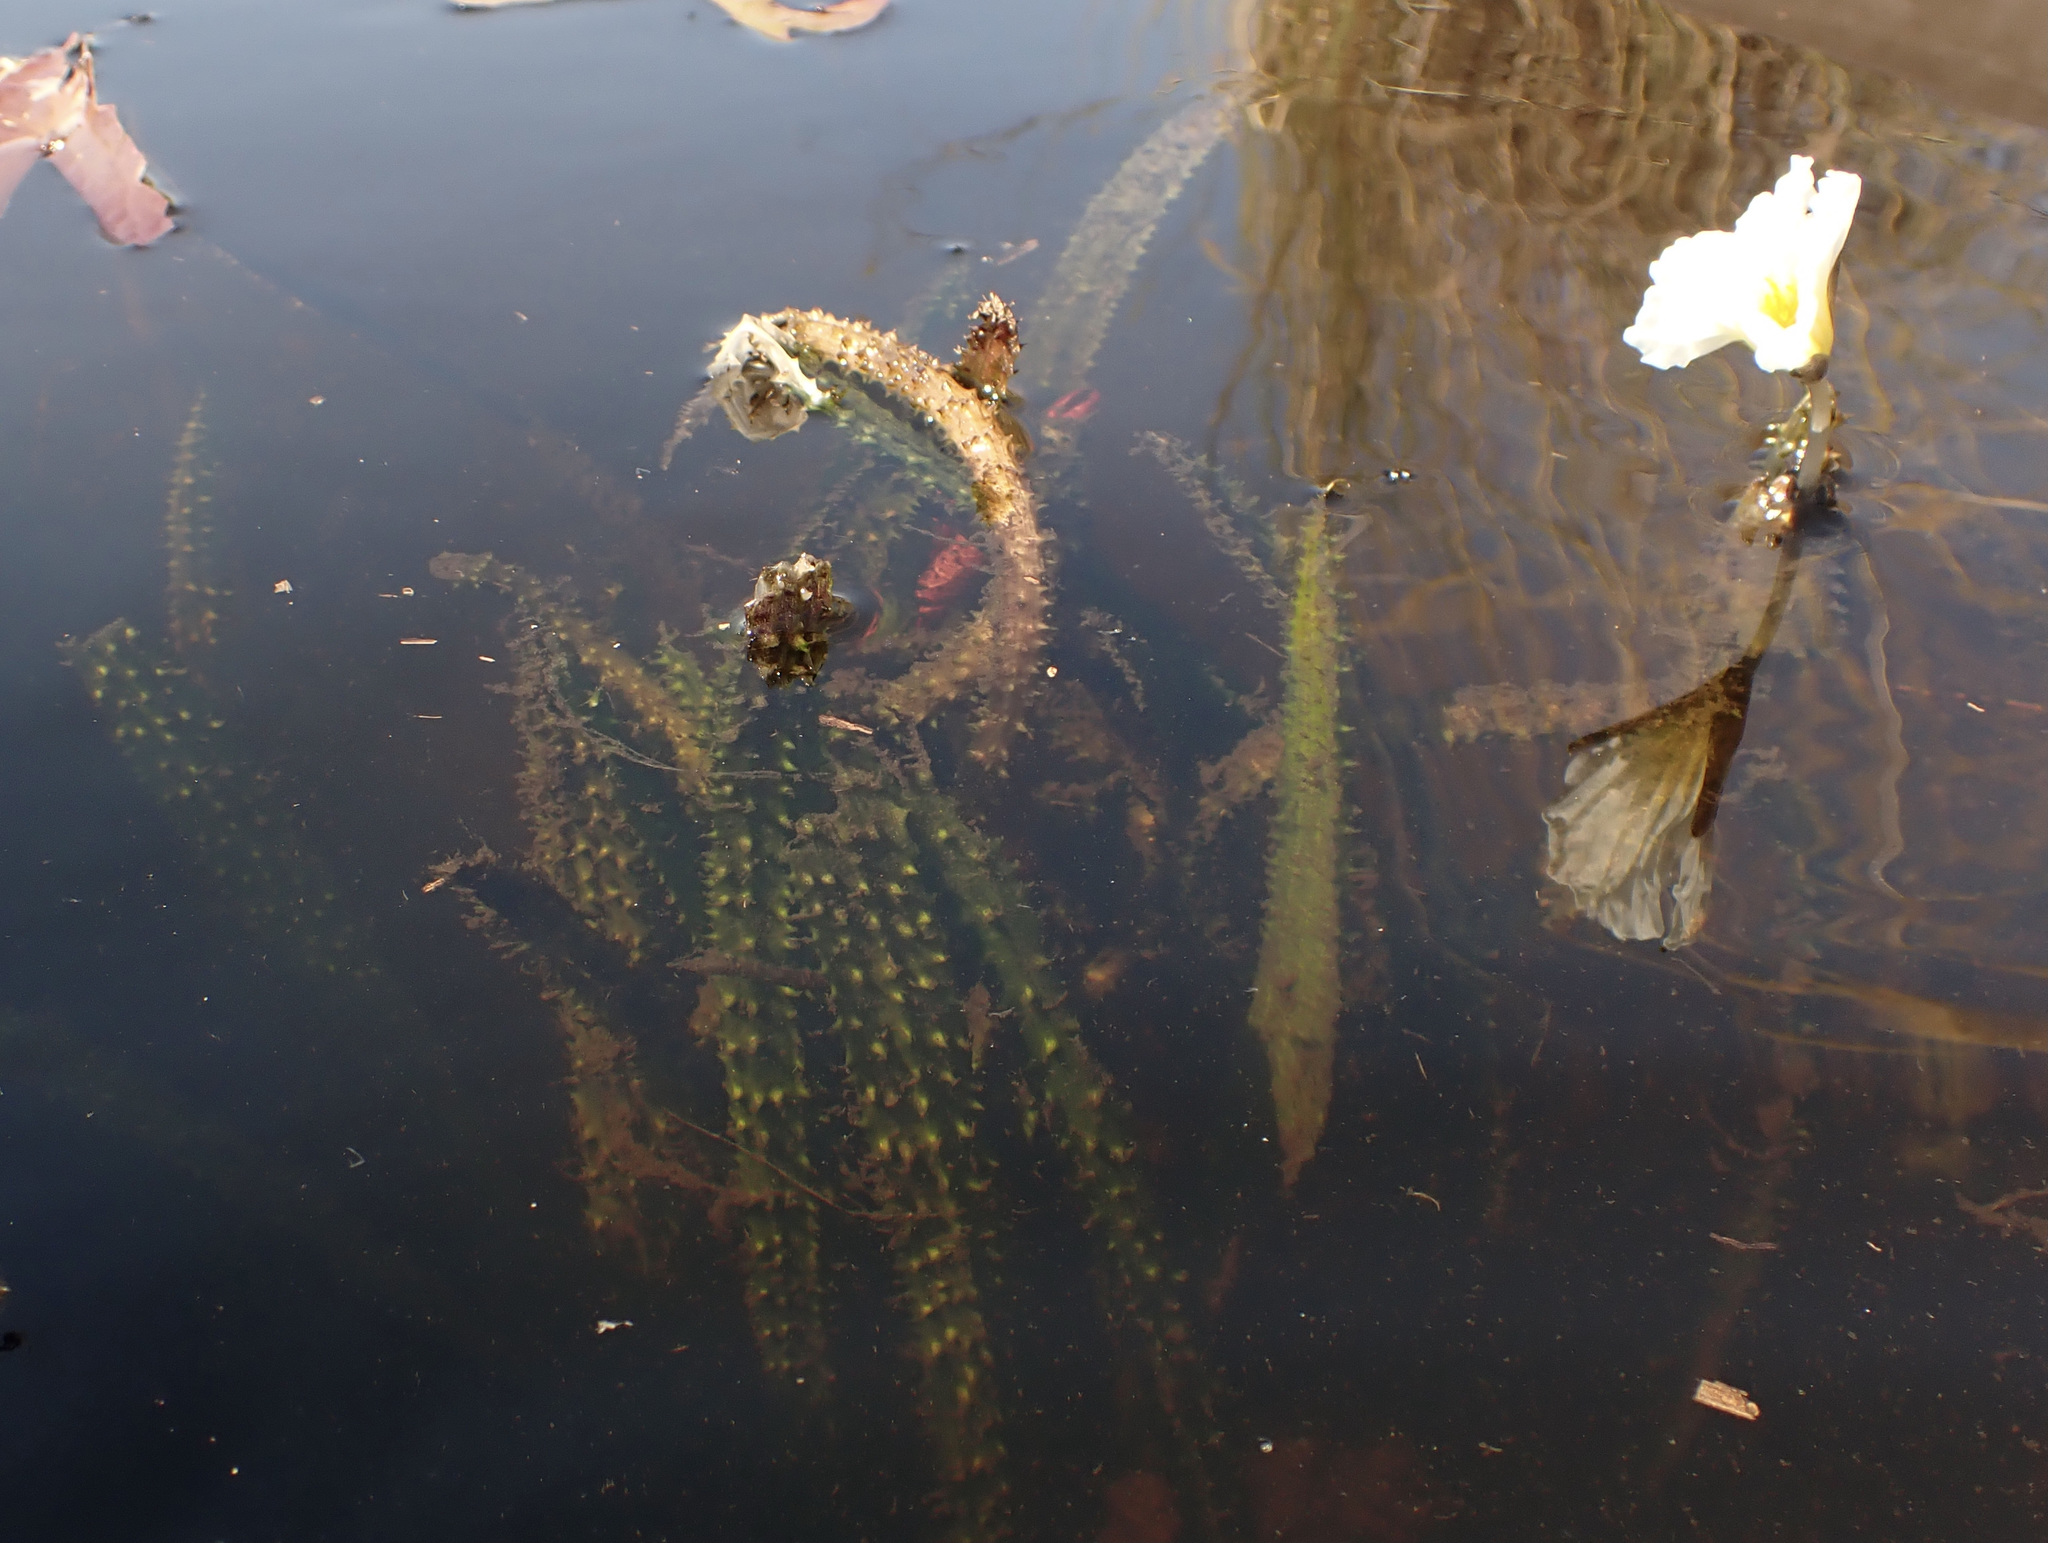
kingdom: Plantae
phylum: Tracheophyta
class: Liliopsida
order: Alismatales
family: Hydrocharitaceae
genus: Ottelia
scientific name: Ottelia muricata
